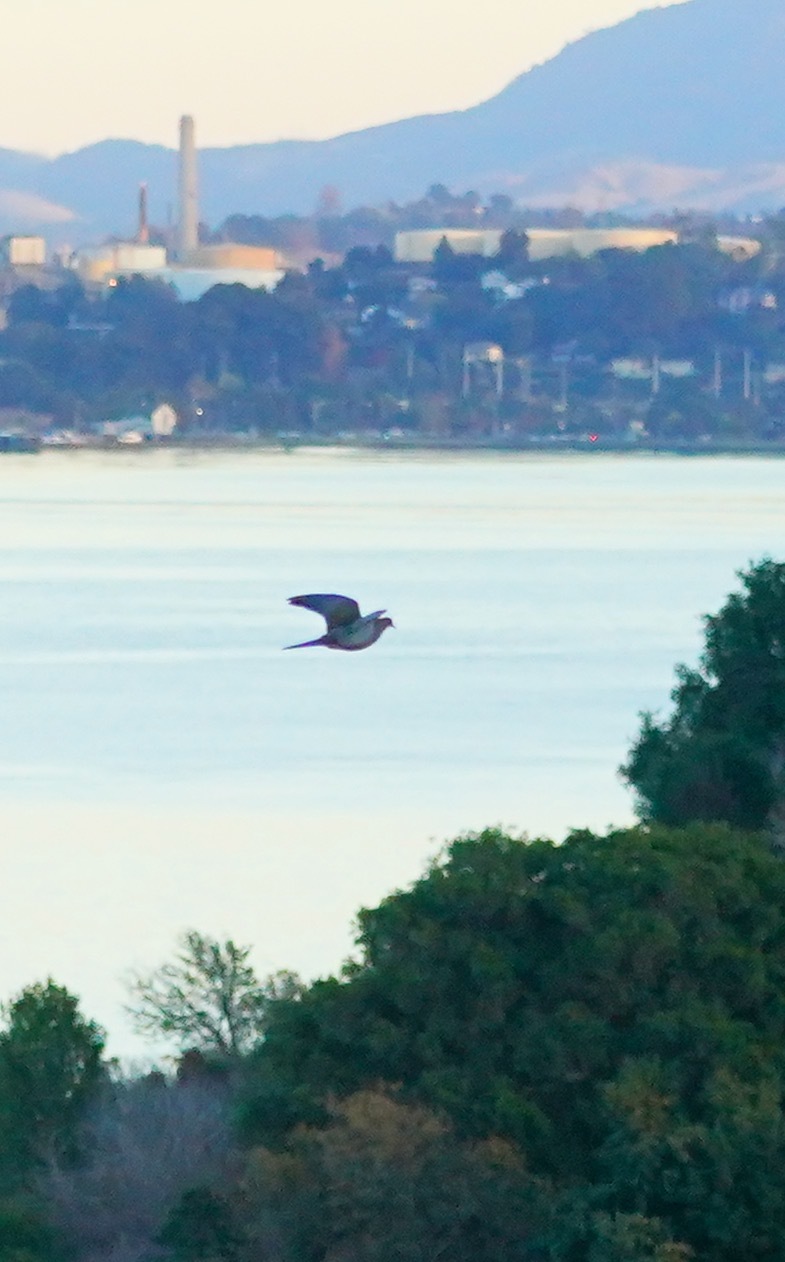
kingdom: Animalia
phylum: Chordata
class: Aves
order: Columbiformes
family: Columbidae
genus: Zenaida
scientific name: Zenaida macroura
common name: Mourning dove
